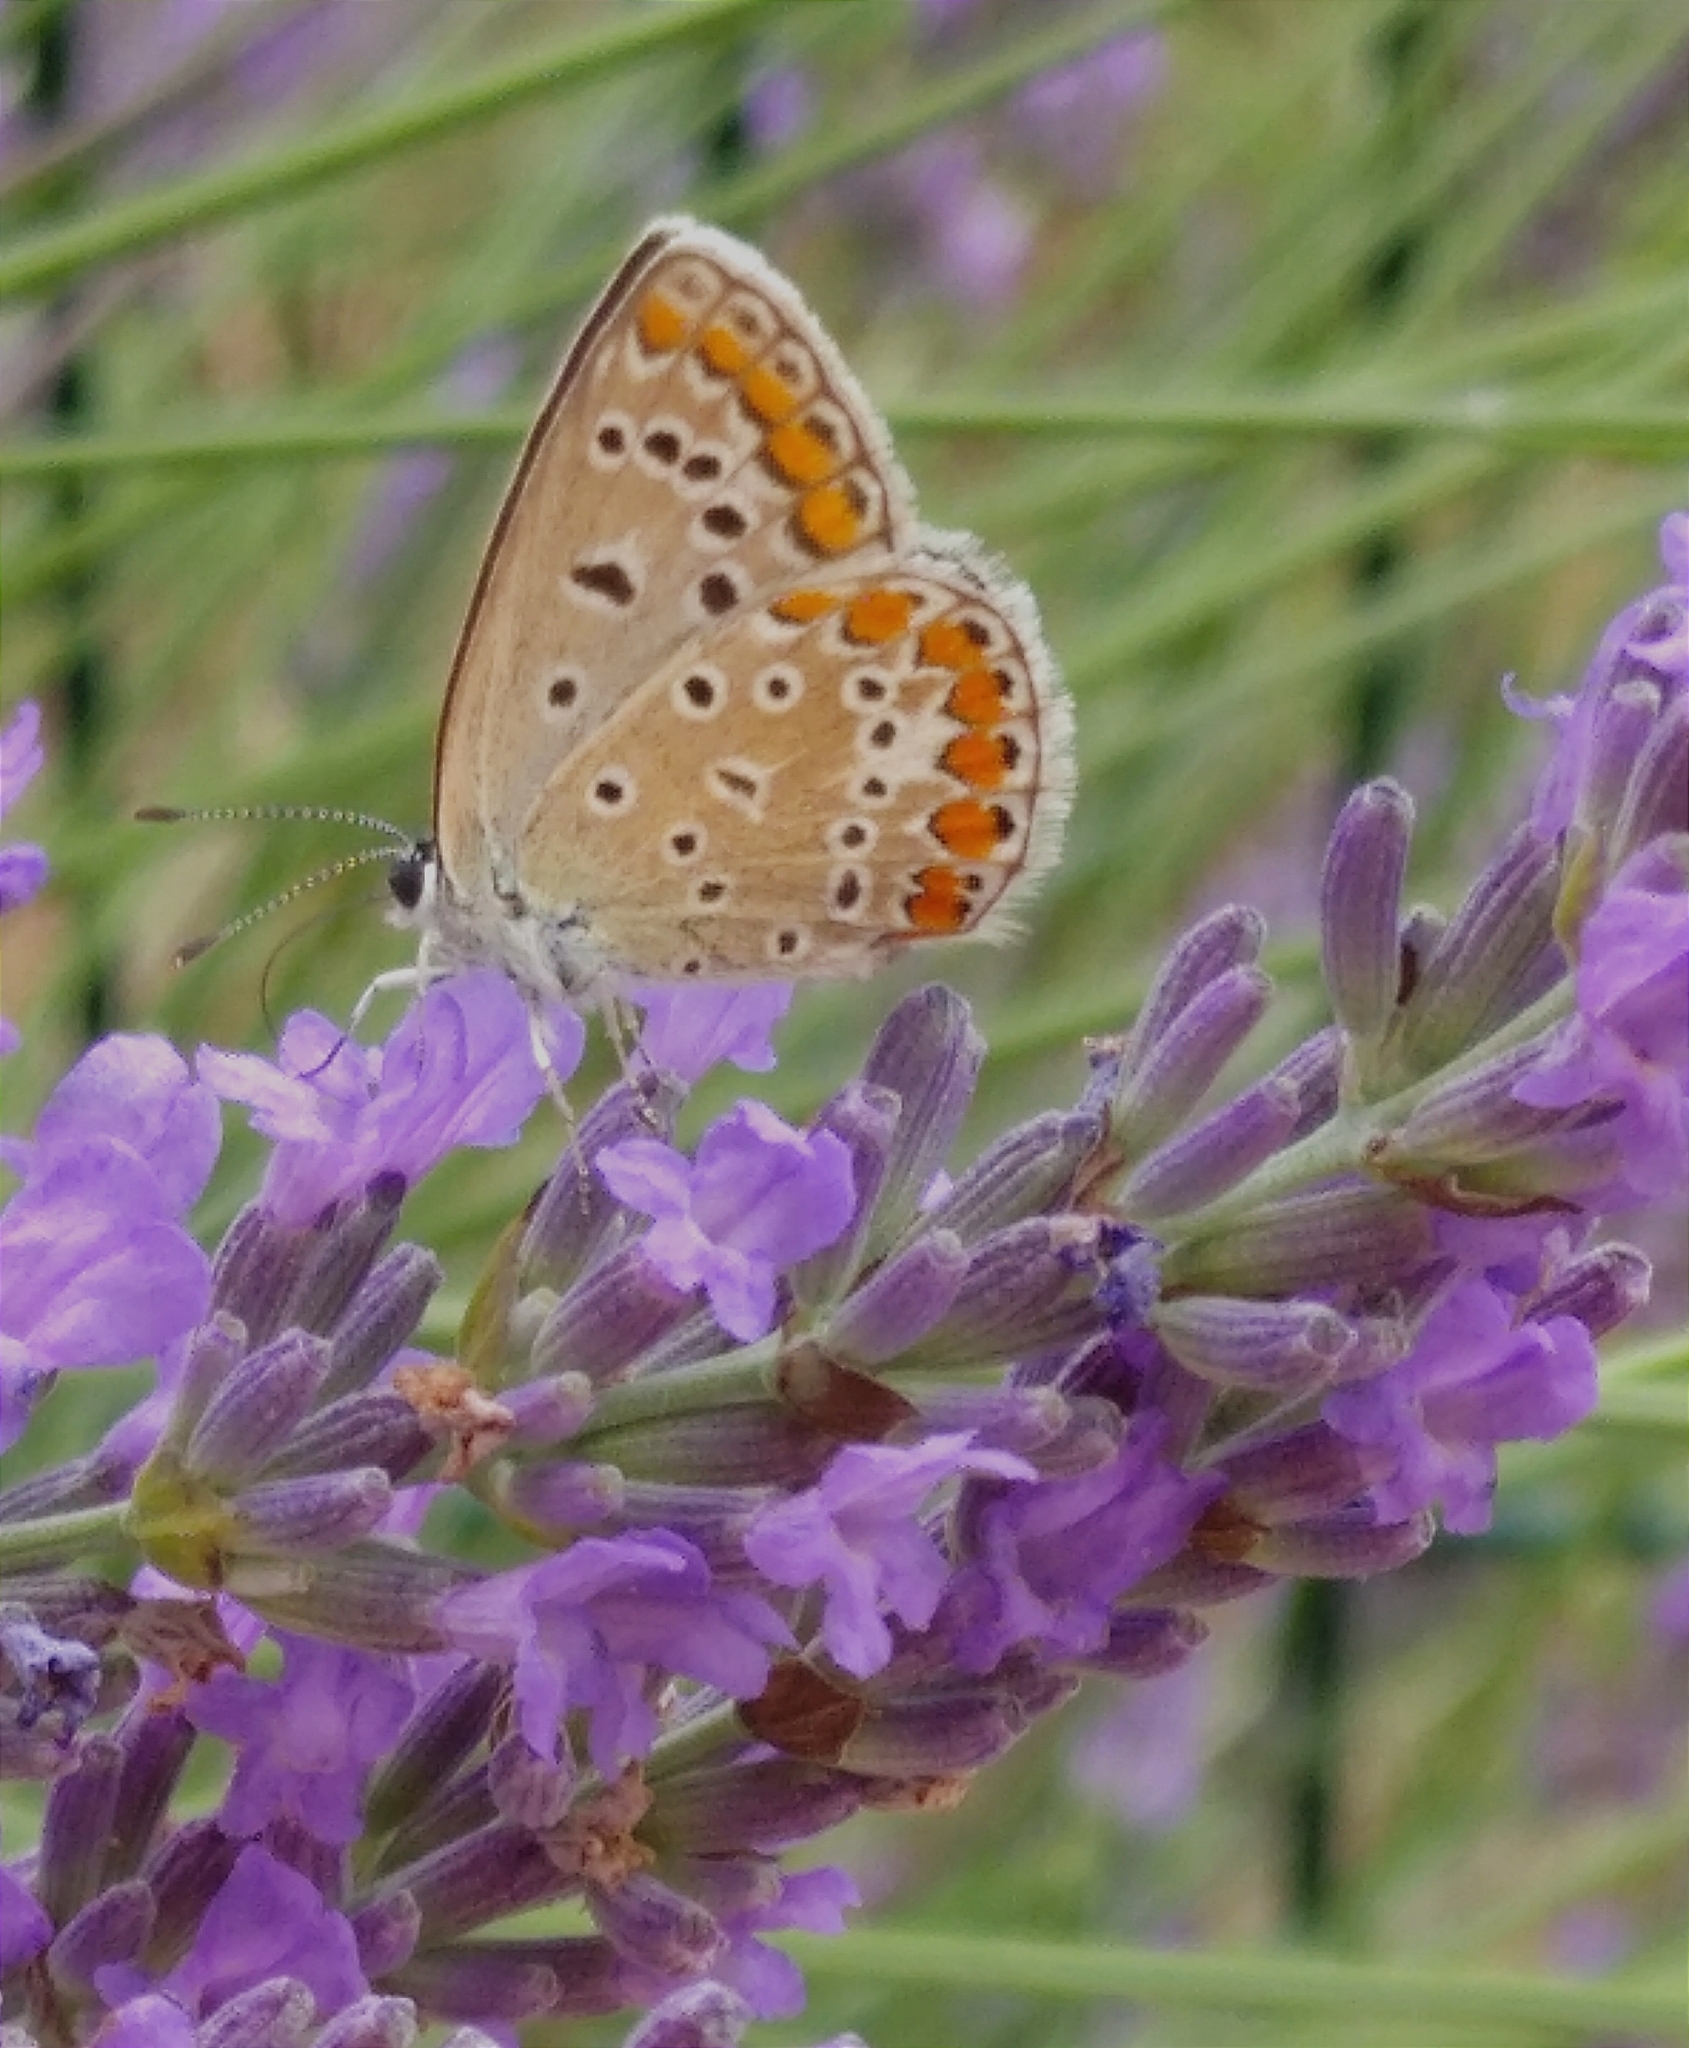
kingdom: Animalia
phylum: Arthropoda
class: Insecta
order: Lepidoptera
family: Lycaenidae
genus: Polyommatus
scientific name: Polyommatus icarus
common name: Common blue
